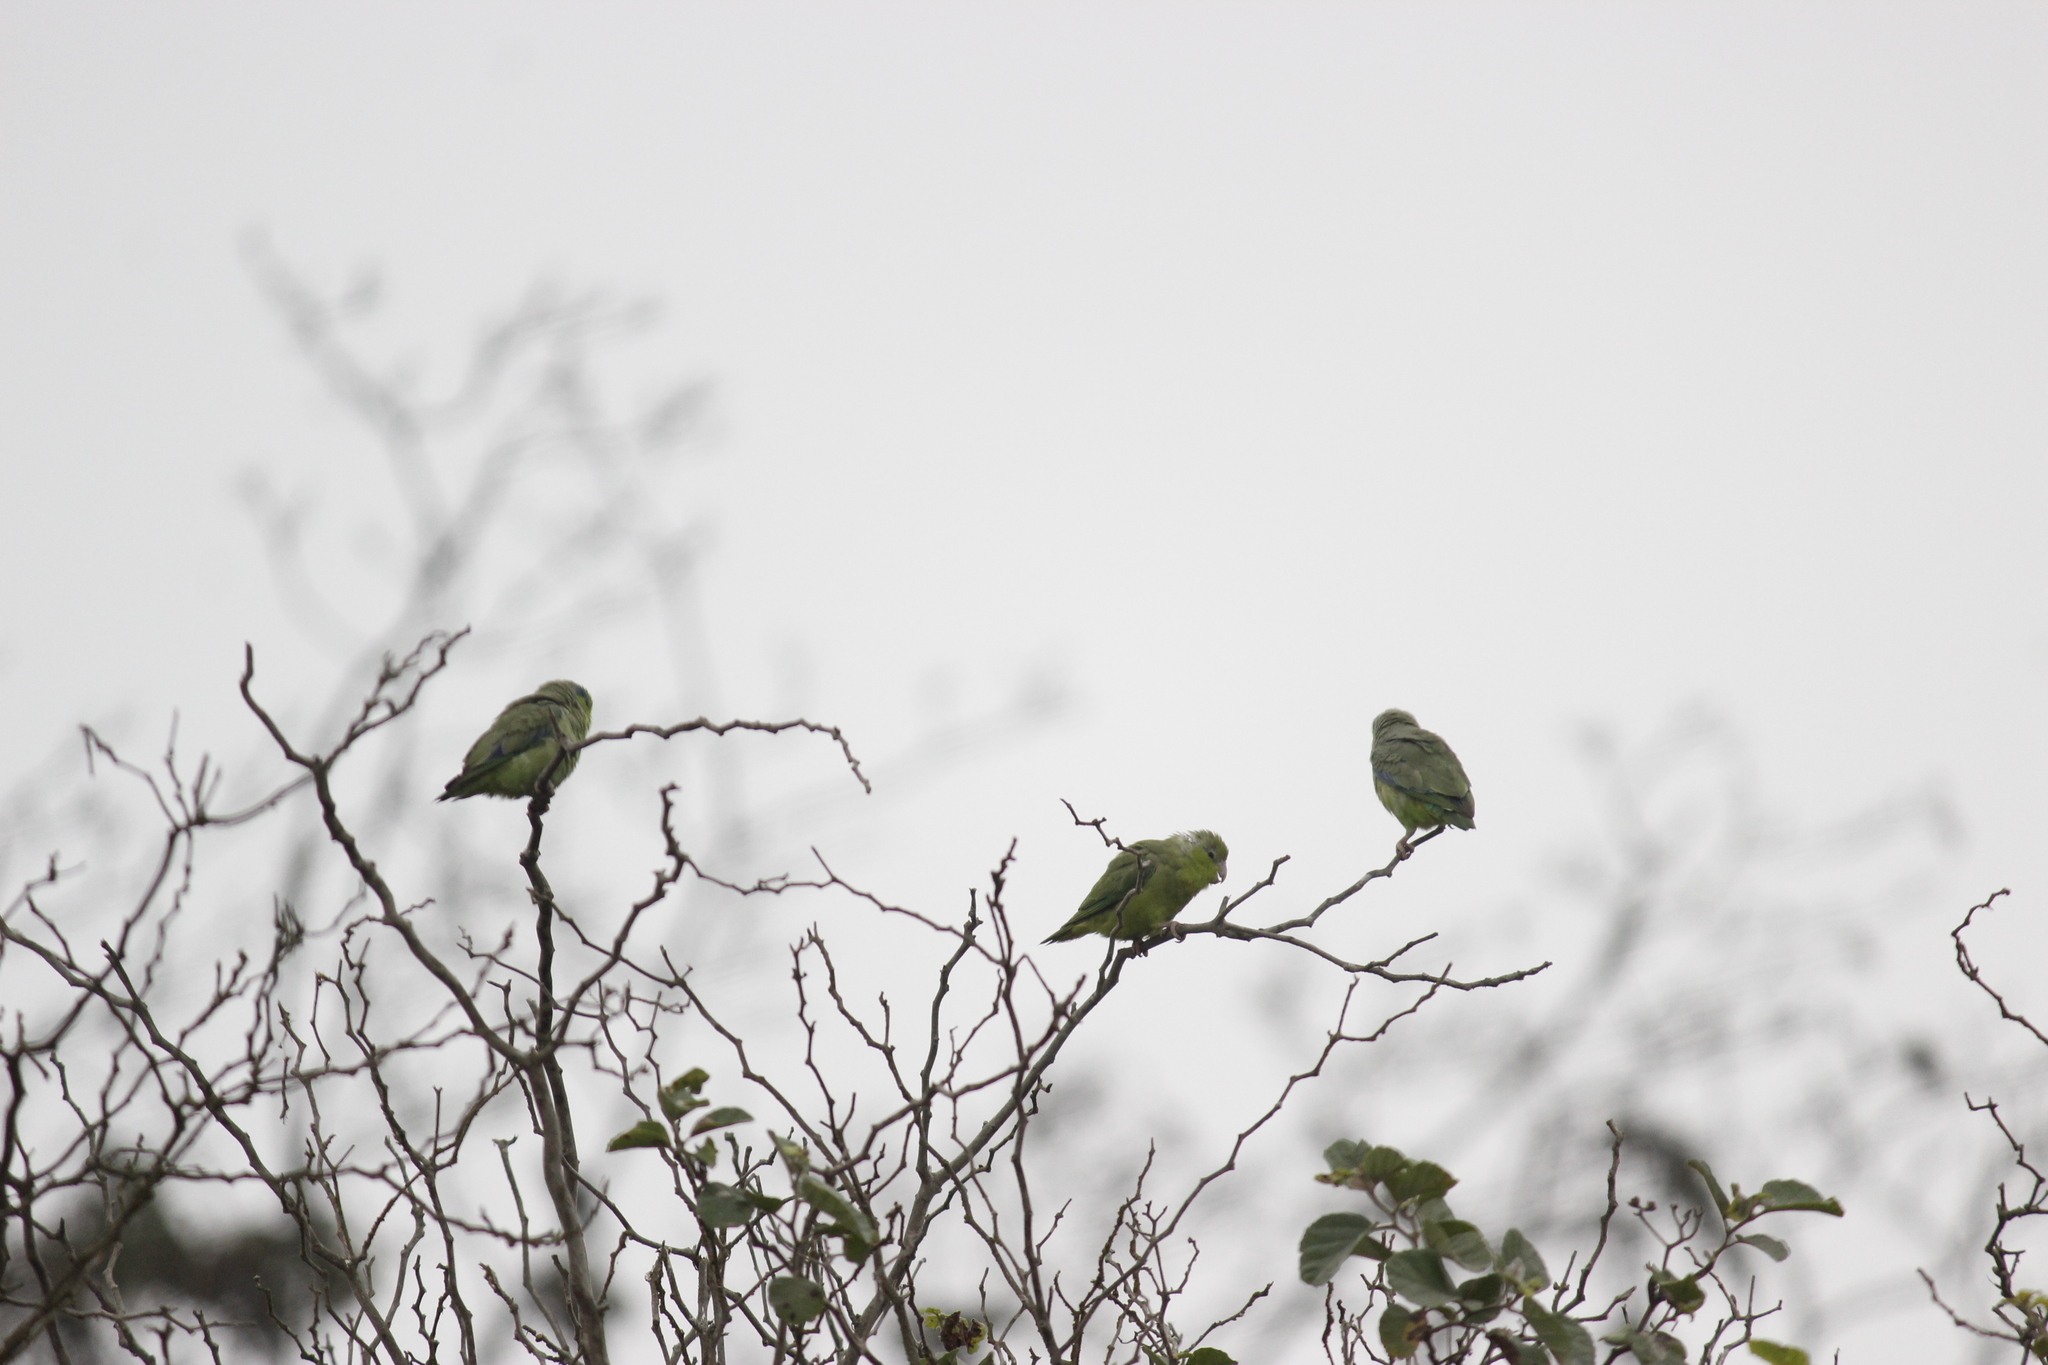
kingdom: Animalia
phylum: Chordata
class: Aves
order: Psittaciformes
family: Psittacidae
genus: Forpus
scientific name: Forpus coelestis
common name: Pacific parrotlet
